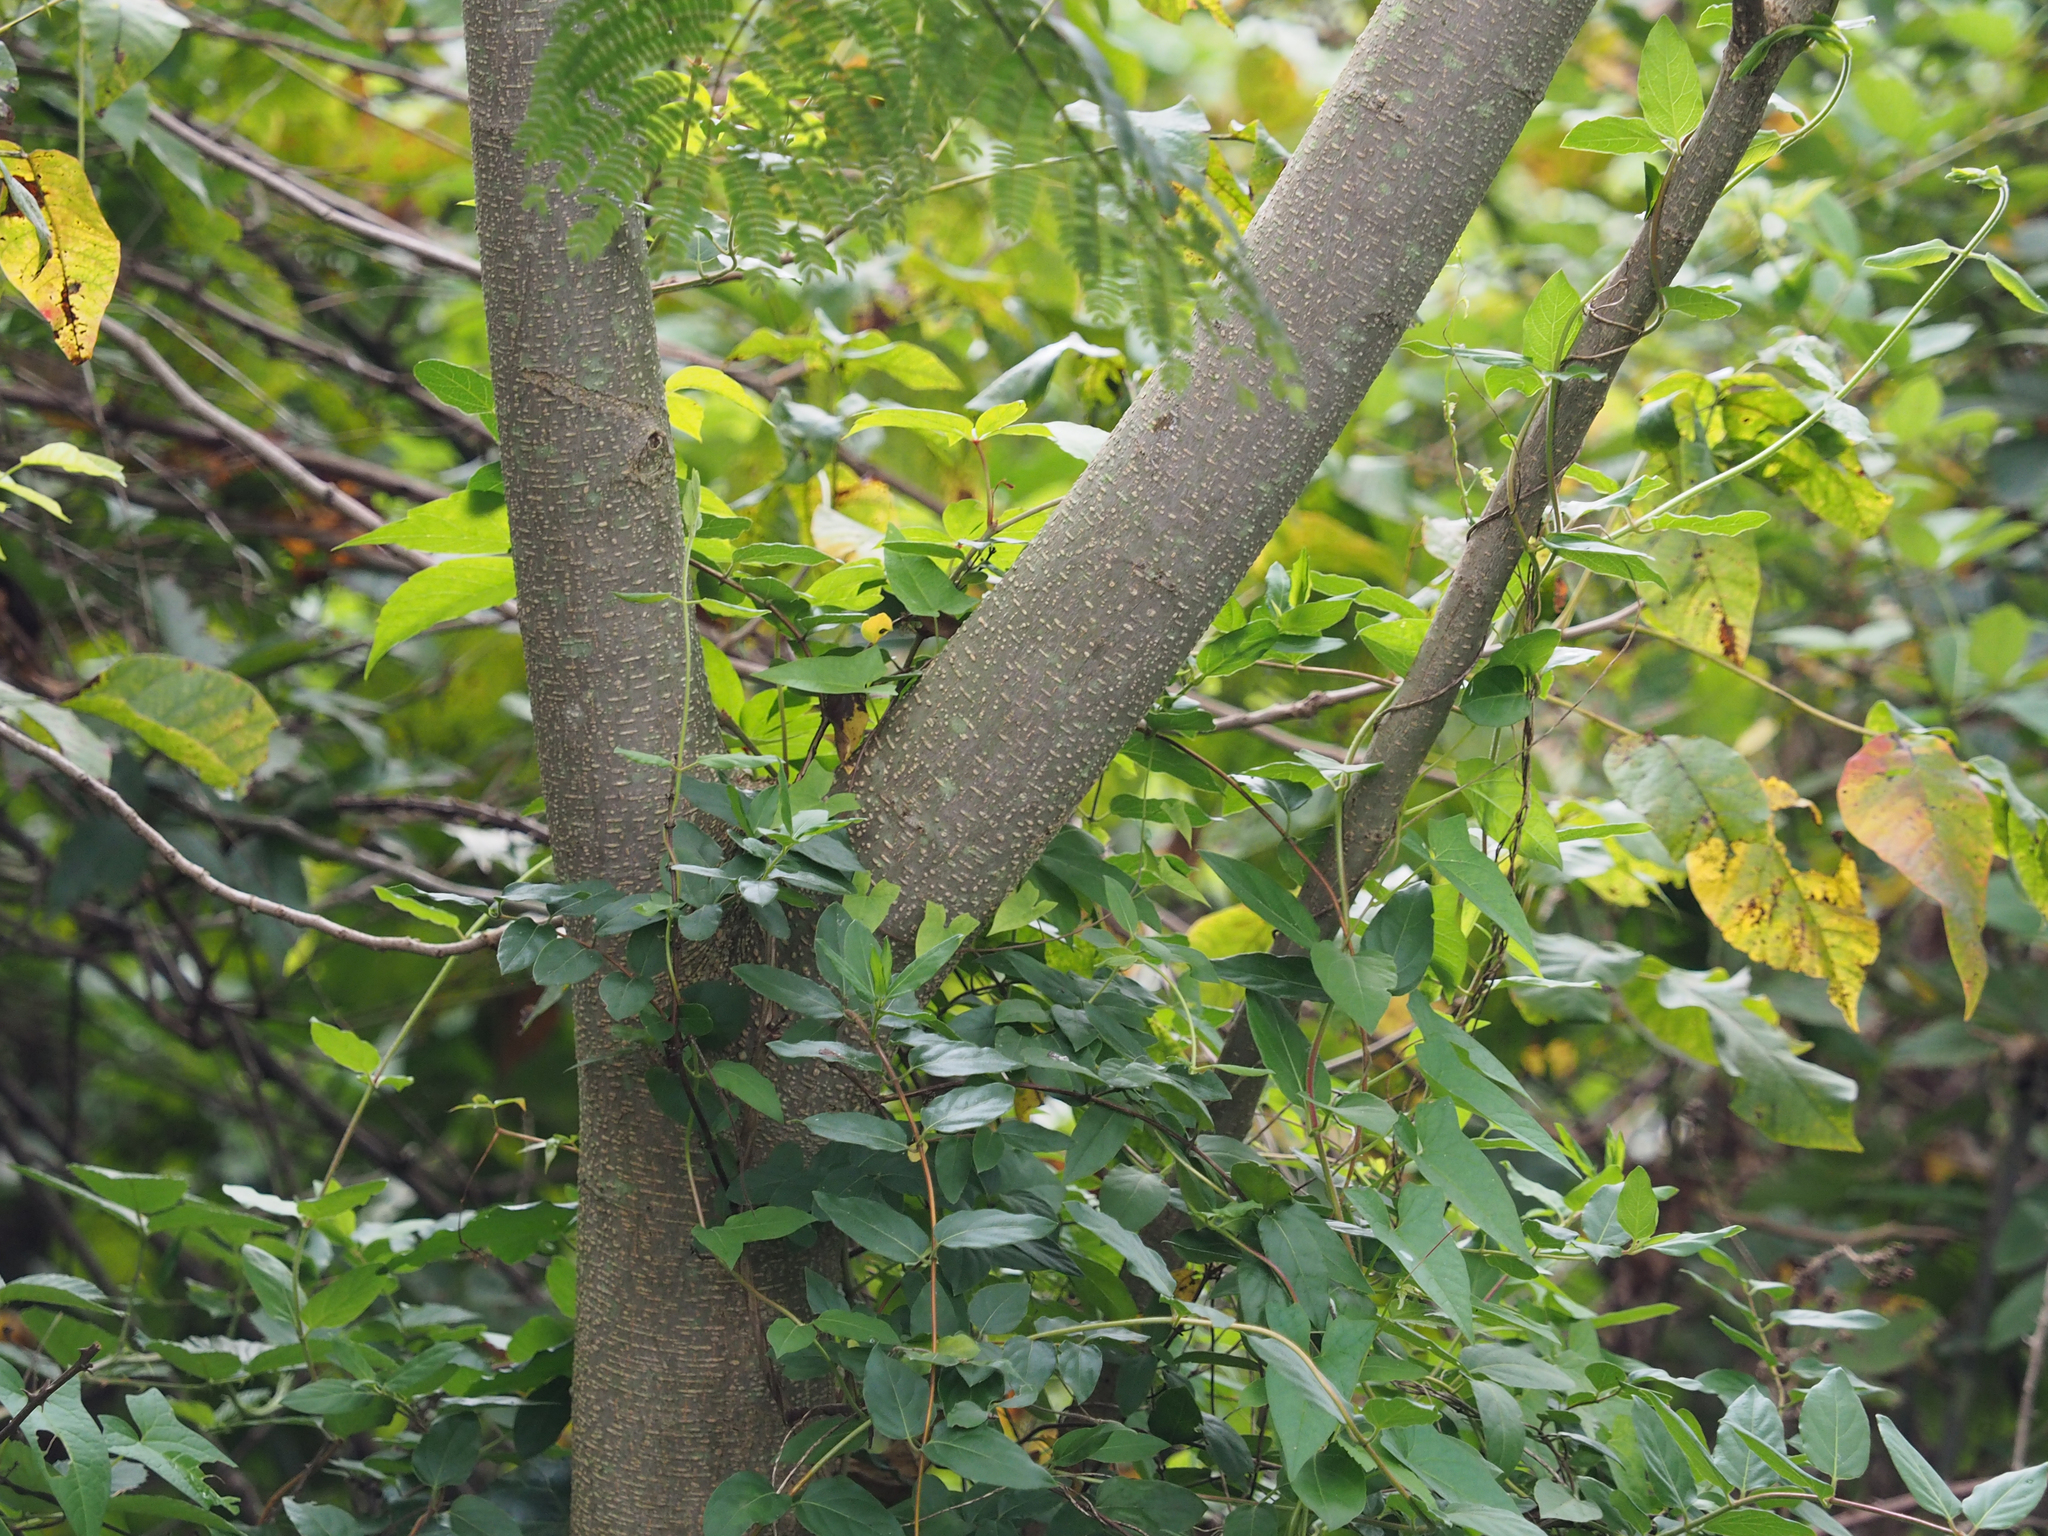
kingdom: Plantae
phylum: Tracheophyta
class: Magnoliopsida
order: Fabales
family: Fabaceae
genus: Albizia
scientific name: Albizia julibrissin
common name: Silktree
